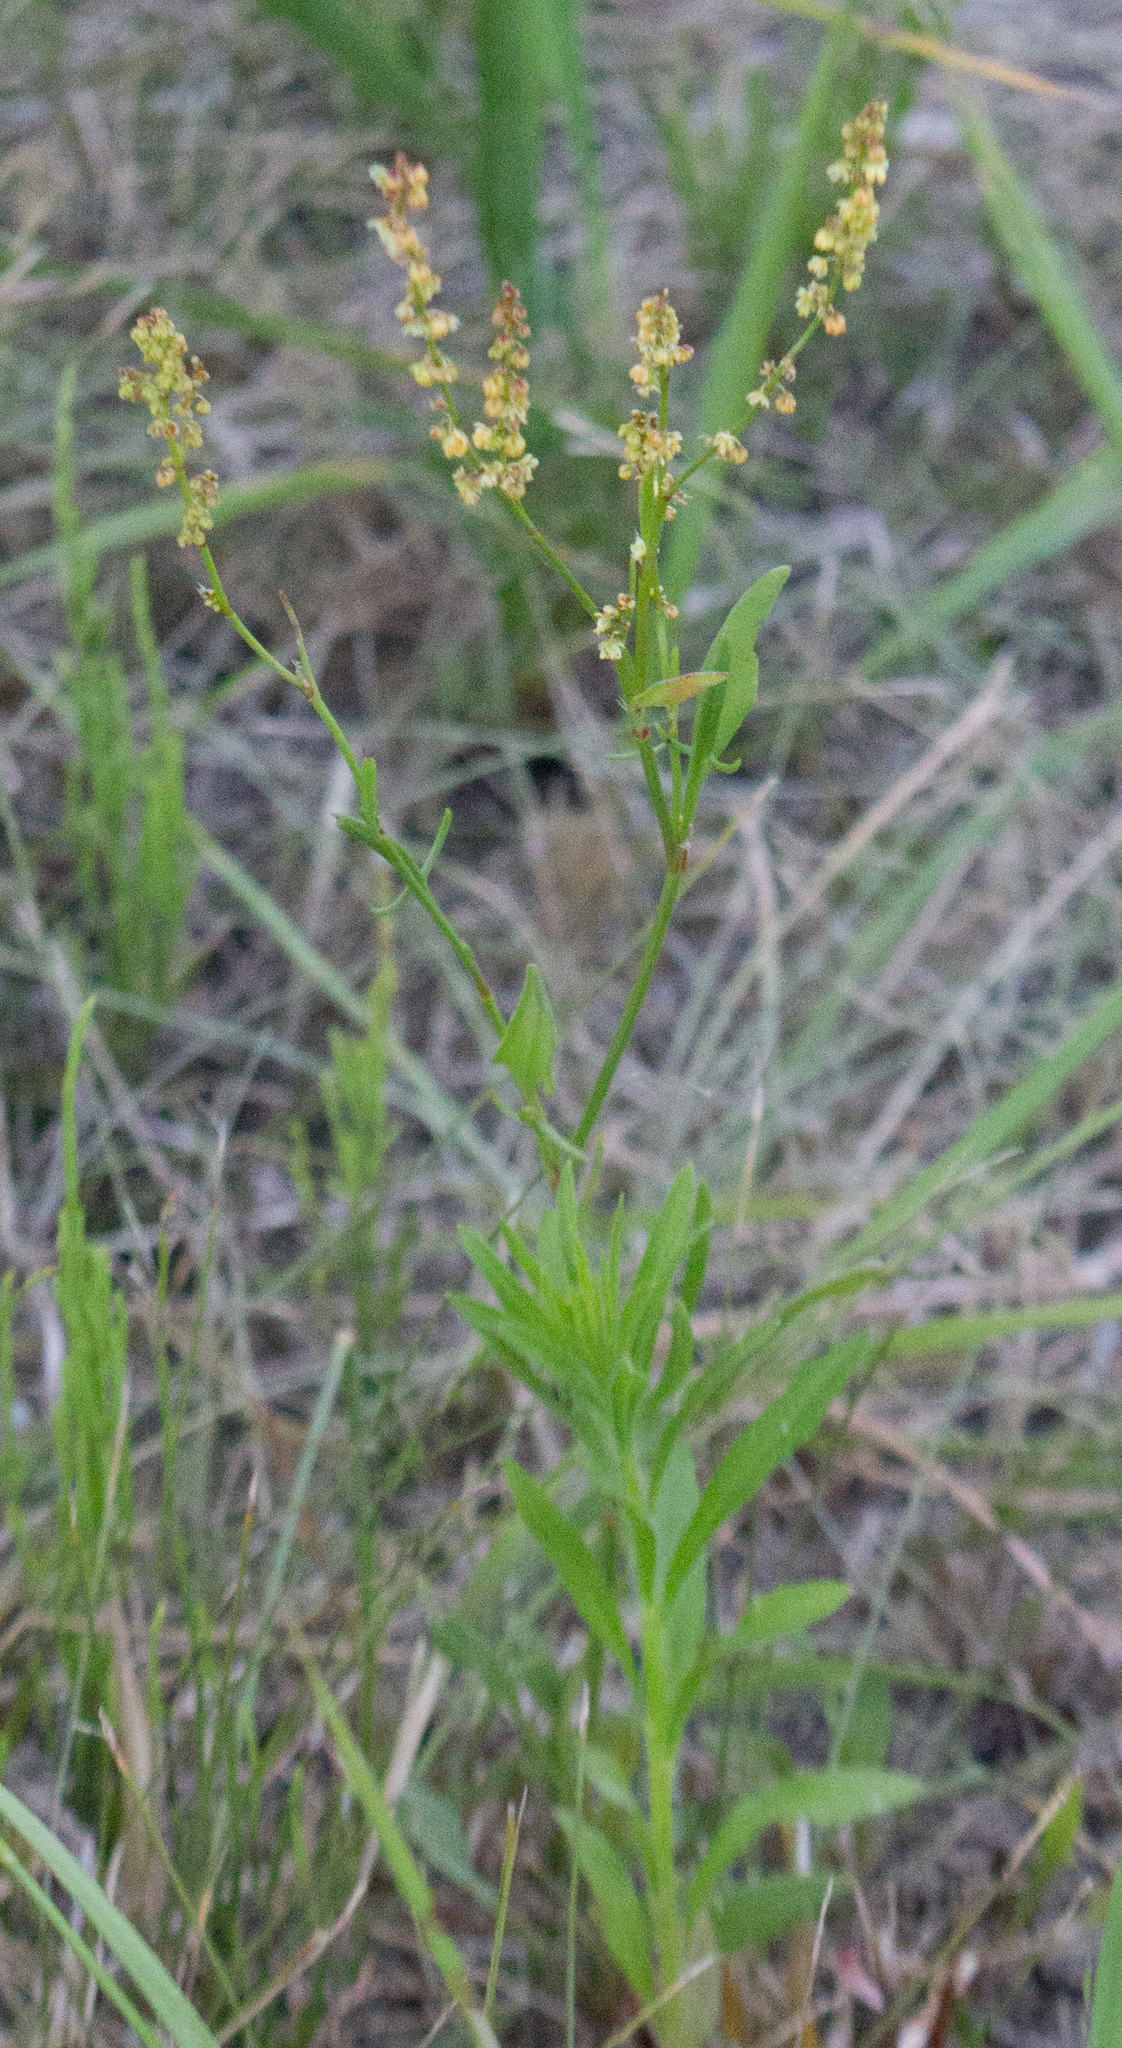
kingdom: Plantae
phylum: Tracheophyta
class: Magnoliopsida
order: Caryophyllales
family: Polygonaceae
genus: Rumex
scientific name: Rumex acetosella
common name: Common sheep sorrel
